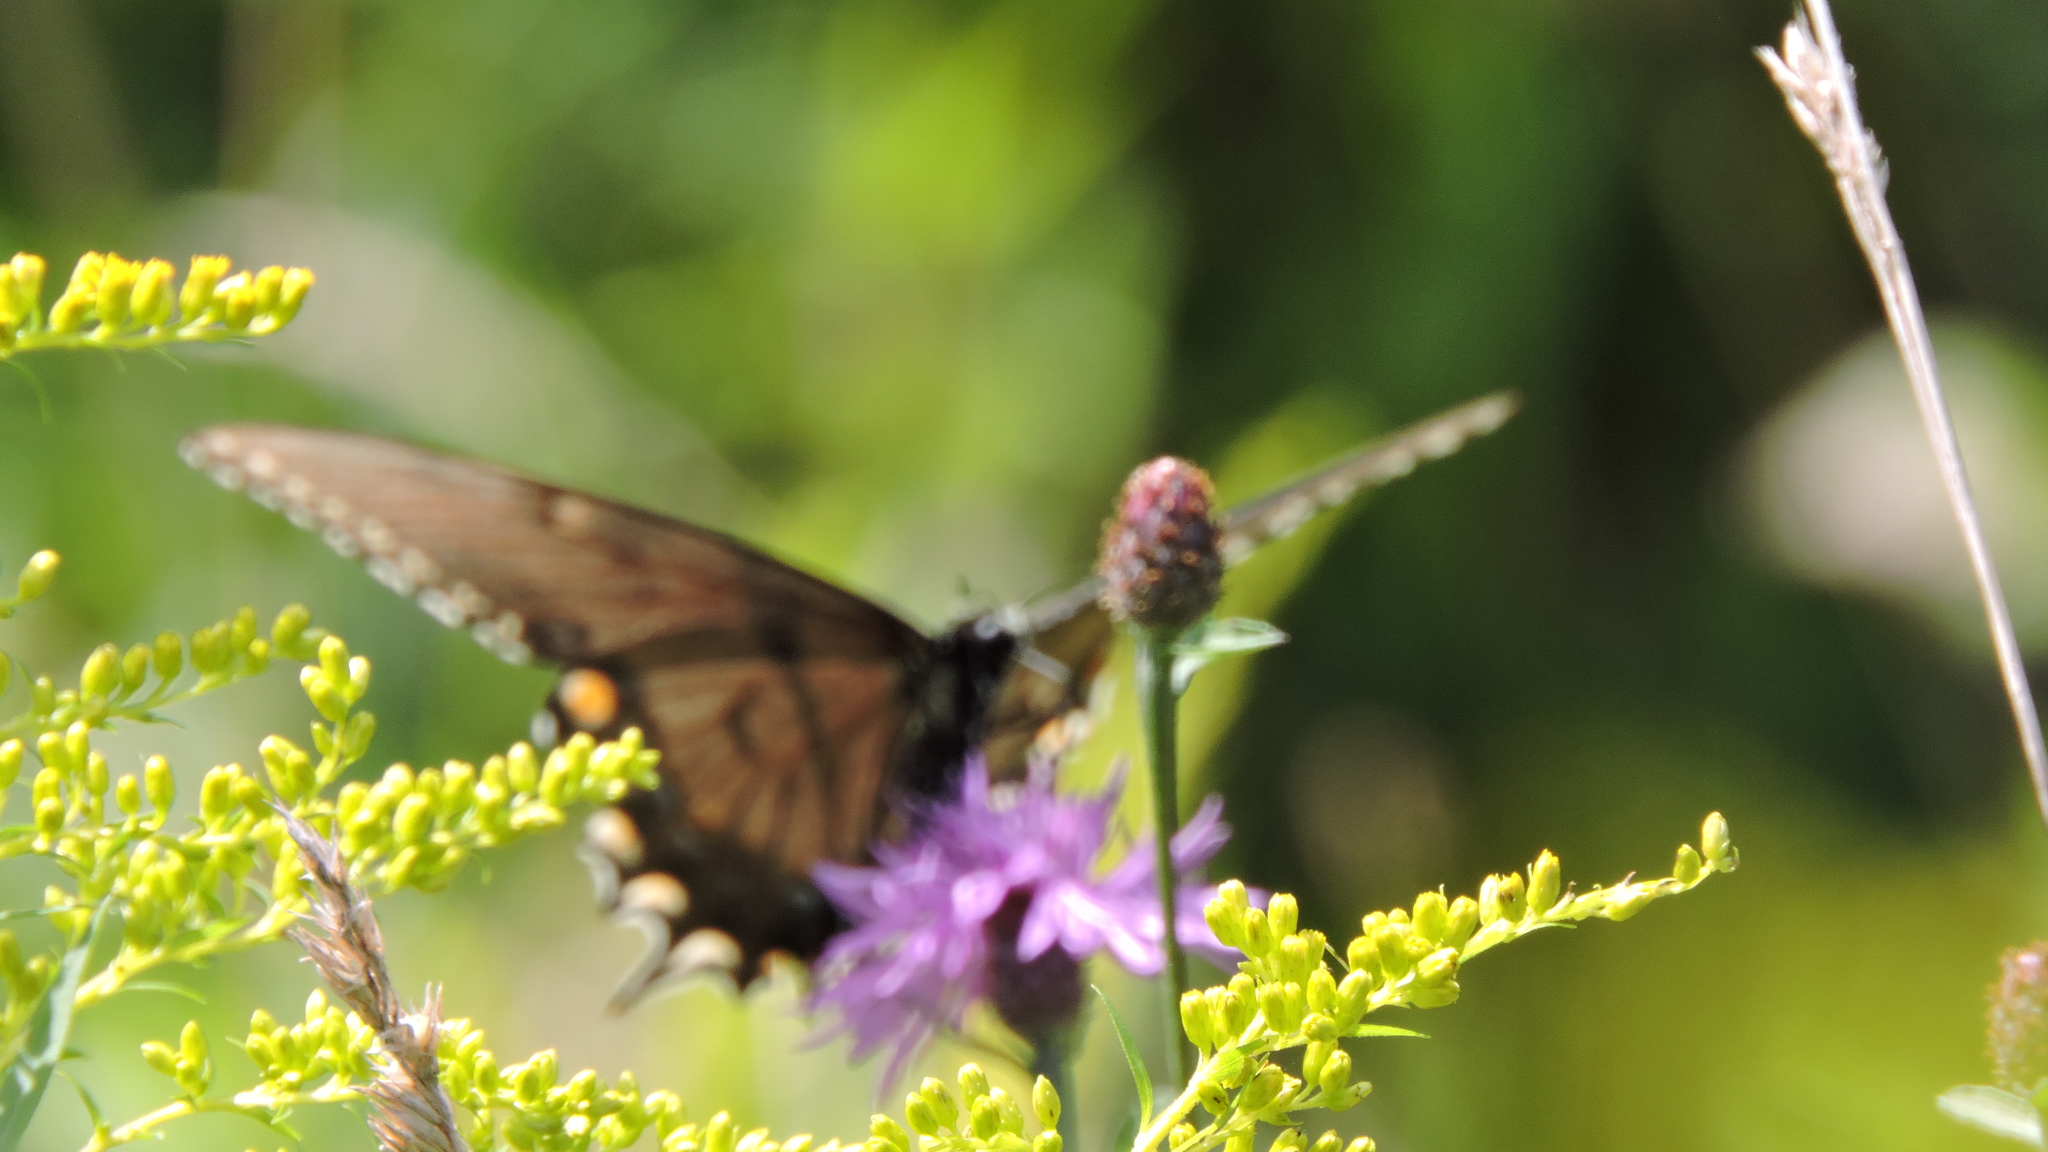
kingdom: Animalia
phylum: Arthropoda
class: Insecta
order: Lepidoptera
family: Papilionidae
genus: Papilio
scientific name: Papilio glaucus
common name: Tiger swallowtail
